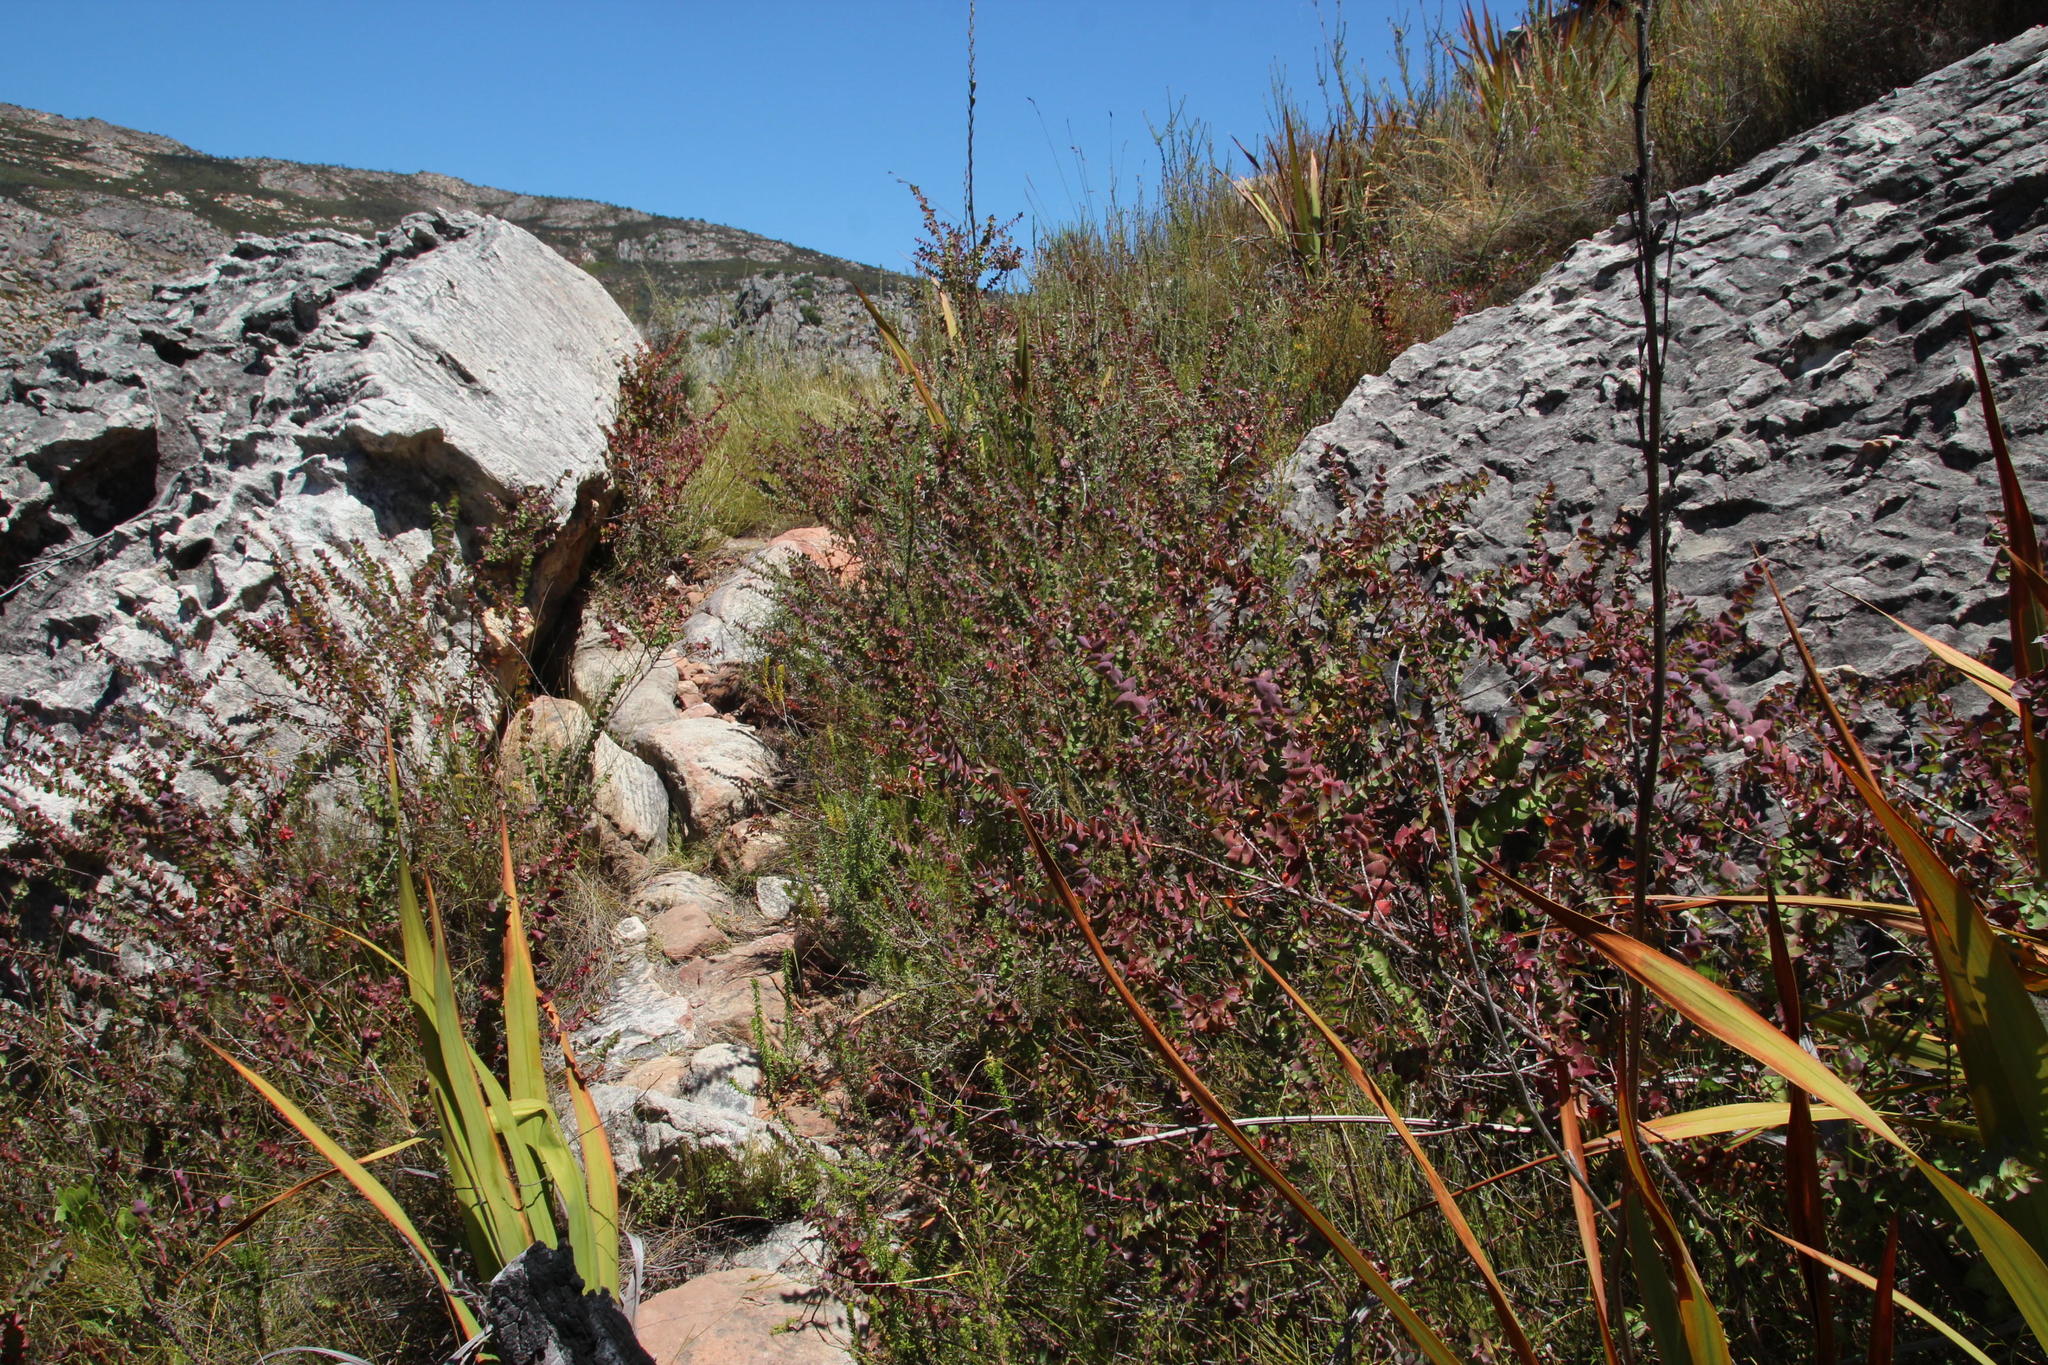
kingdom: Plantae
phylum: Tracheophyta
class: Magnoliopsida
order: Rosales
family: Rosaceae
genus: Cliffortia
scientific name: Cliffortia virgata
